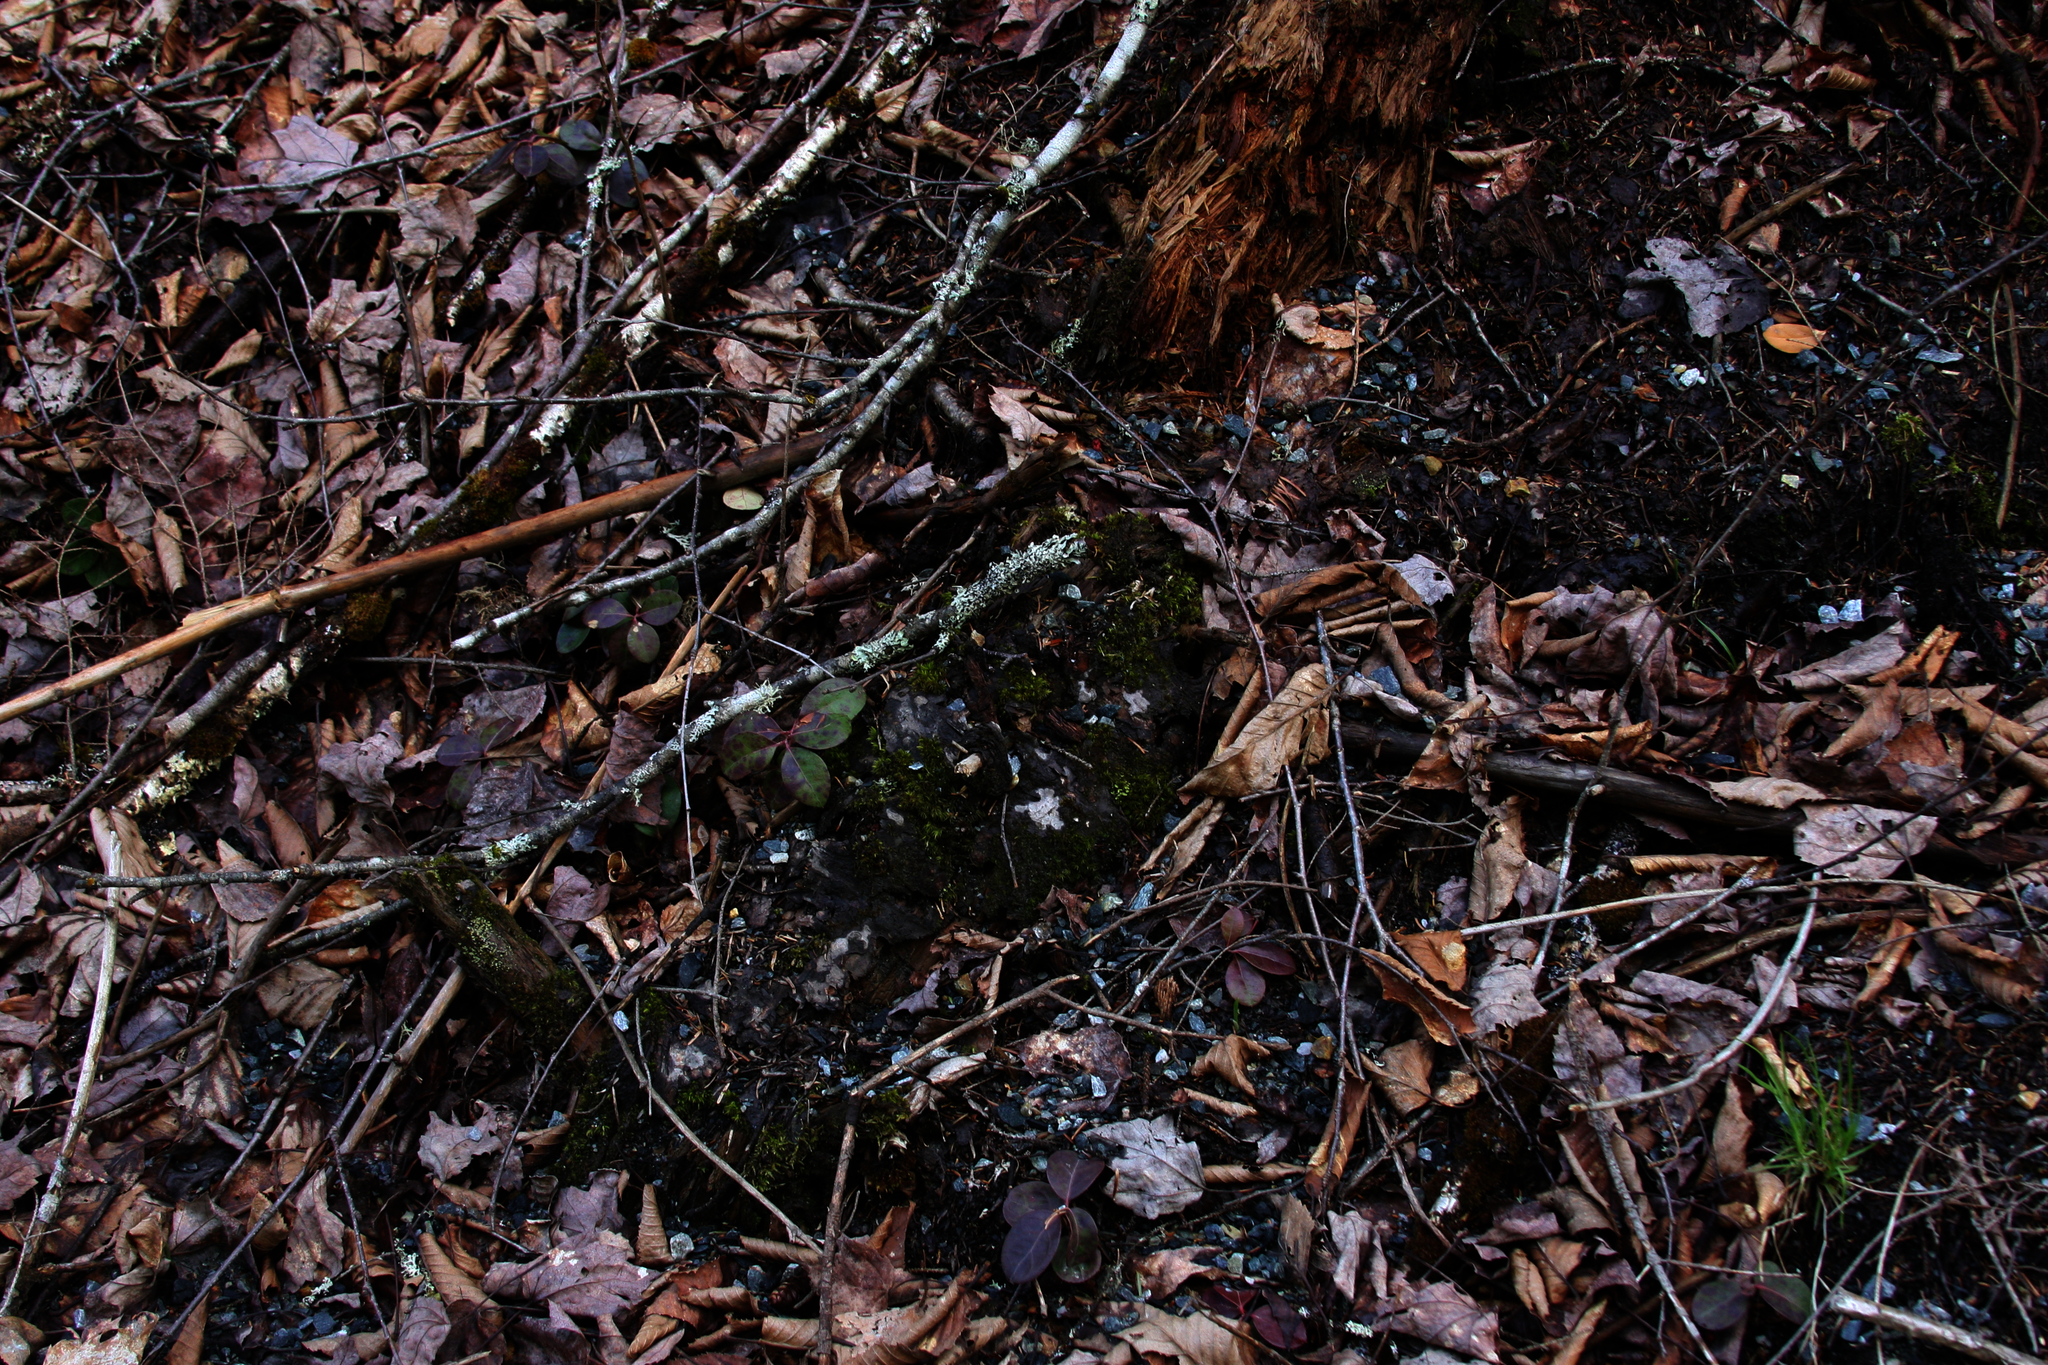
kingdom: Plantae
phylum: Tracheophyta
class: Magnoliopsida
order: Ericales
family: Ericaceae
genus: Gaultheria
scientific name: Gaultheria procumbens
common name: Checkerberry
